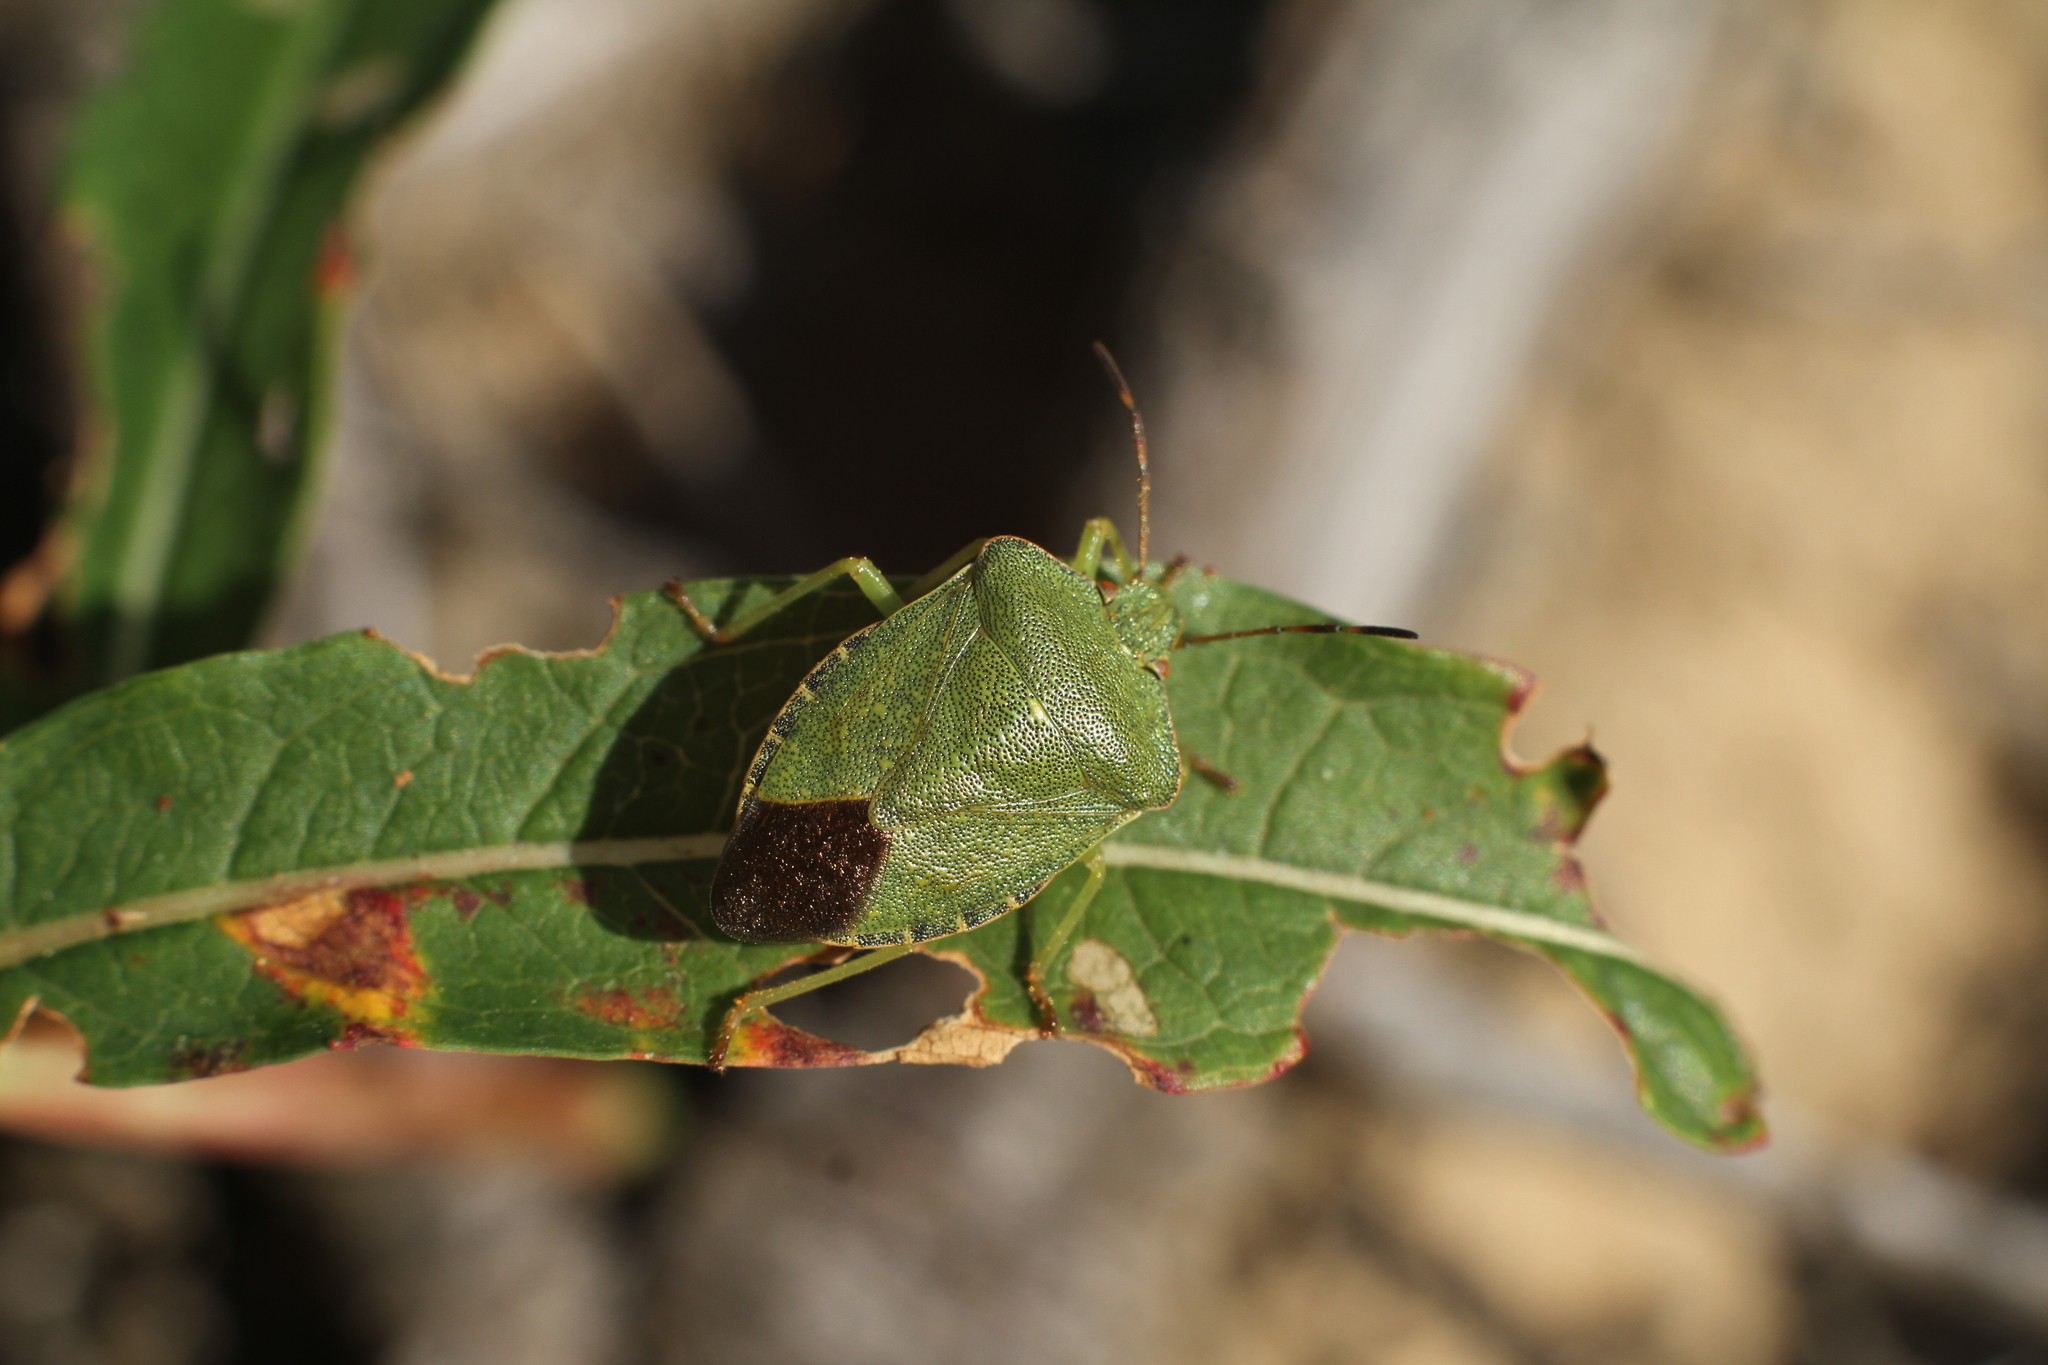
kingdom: Animalia
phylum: Arthropoda
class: Insecta
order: Hemiptera
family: Pentatomidae
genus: Palomena
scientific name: Palomena prasina
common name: Green shieldbug
